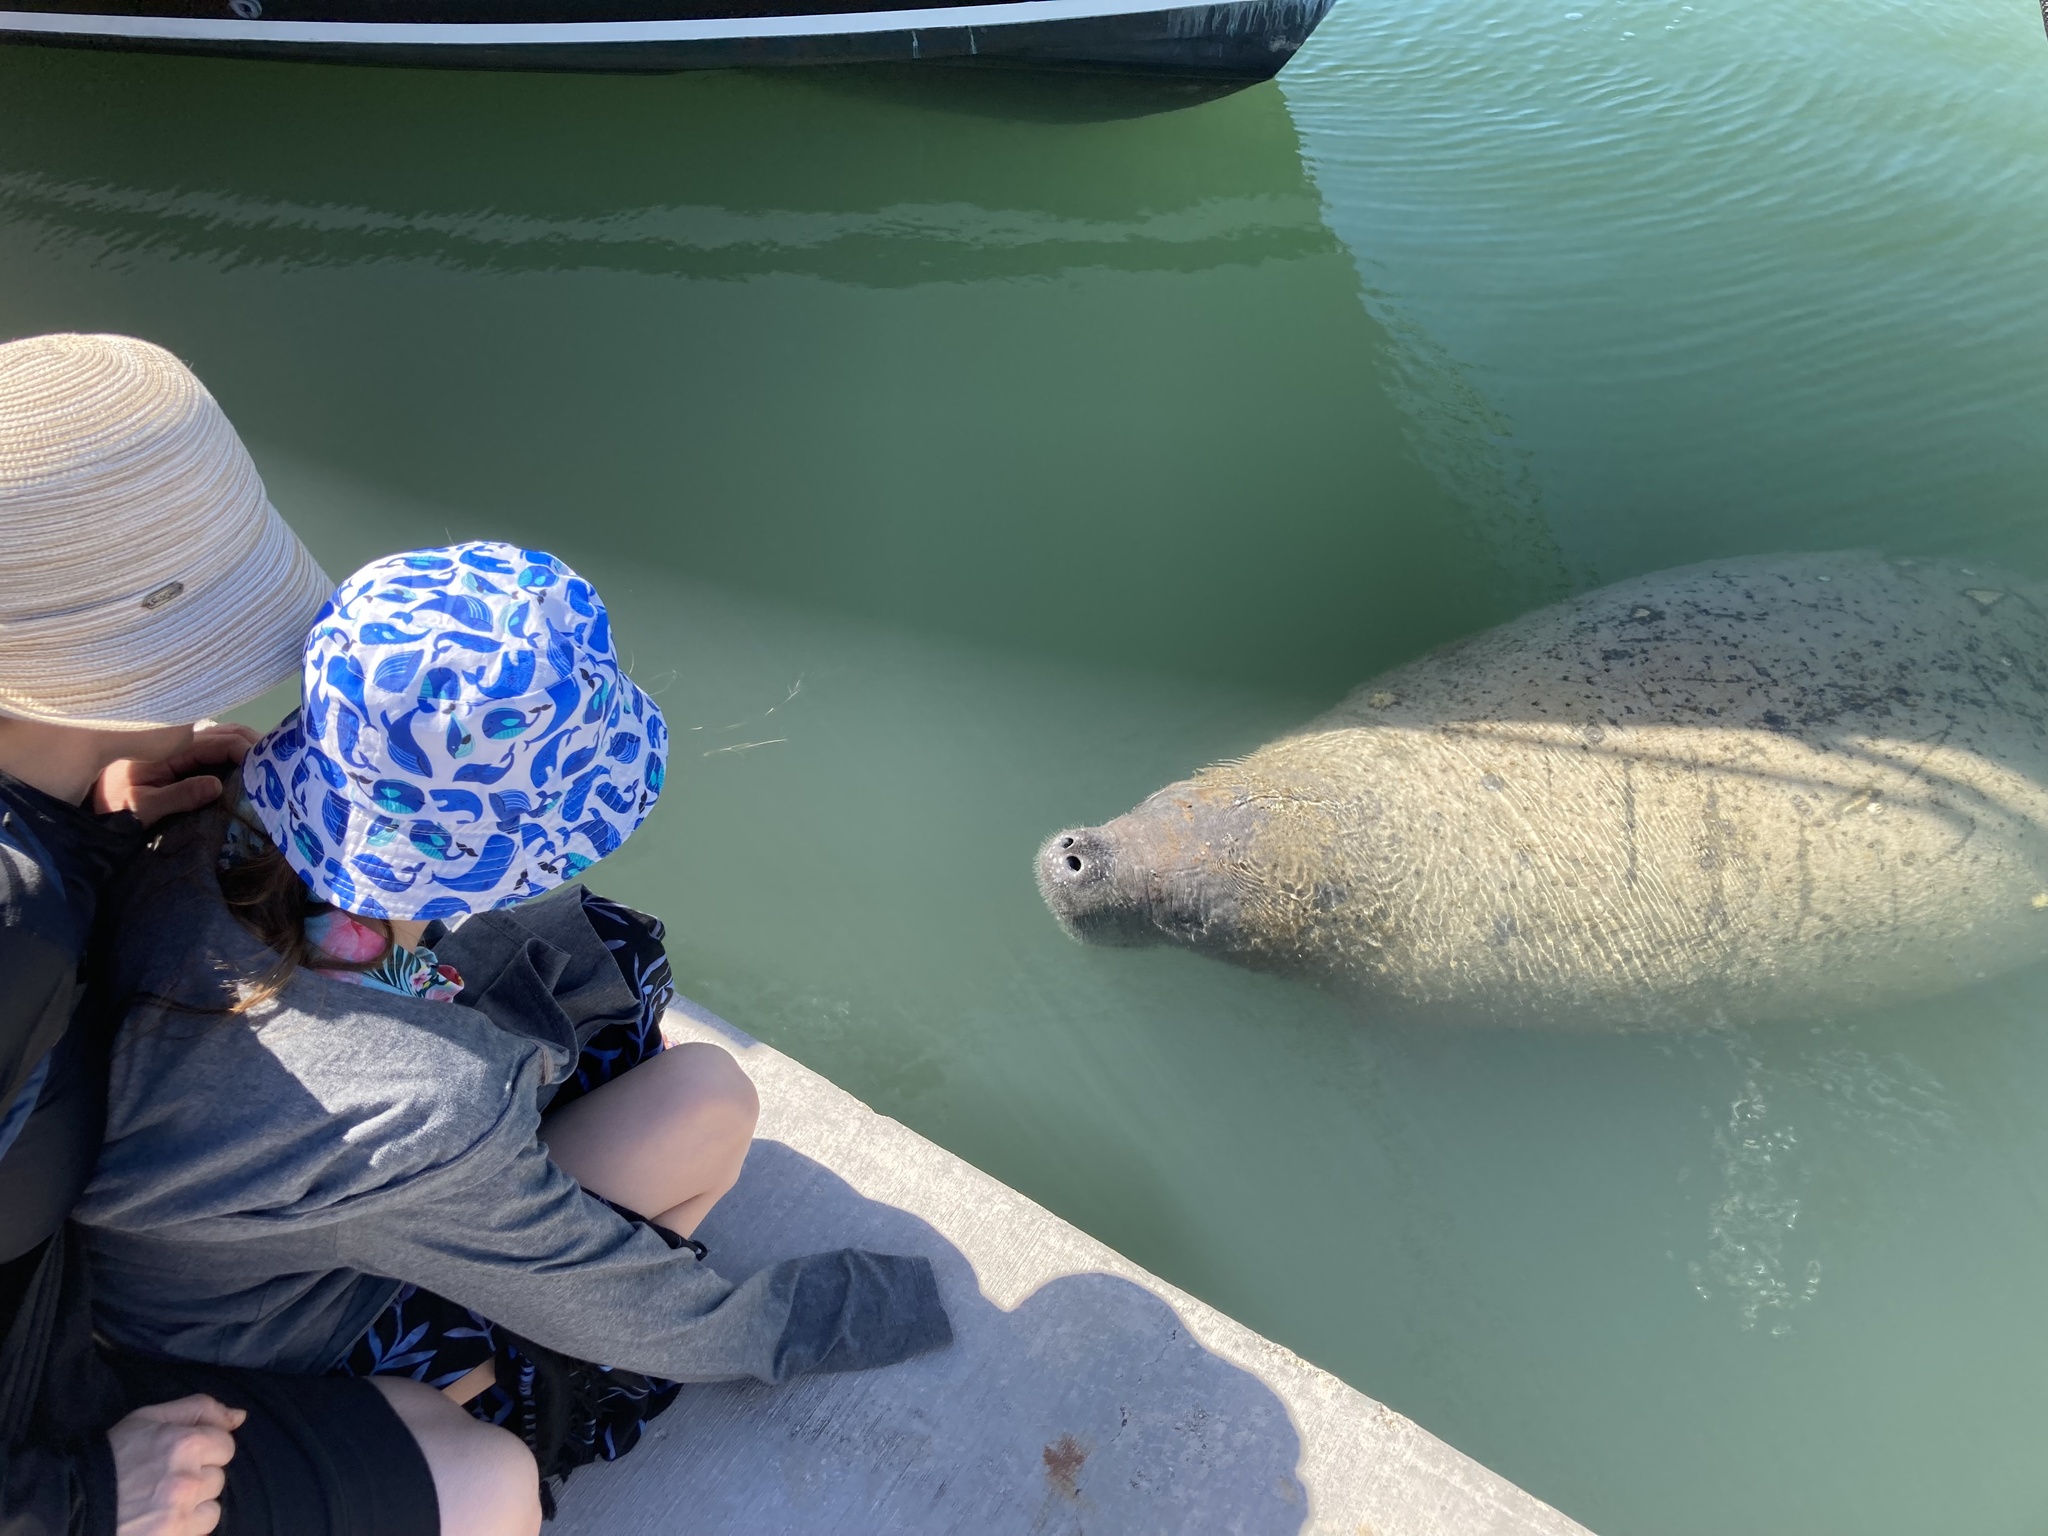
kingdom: Animalia
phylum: Chordata
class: Mammalia
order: Sirenia
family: Trichechidae
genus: Trichechus
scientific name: Trichechus manatus
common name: West indian manatee
